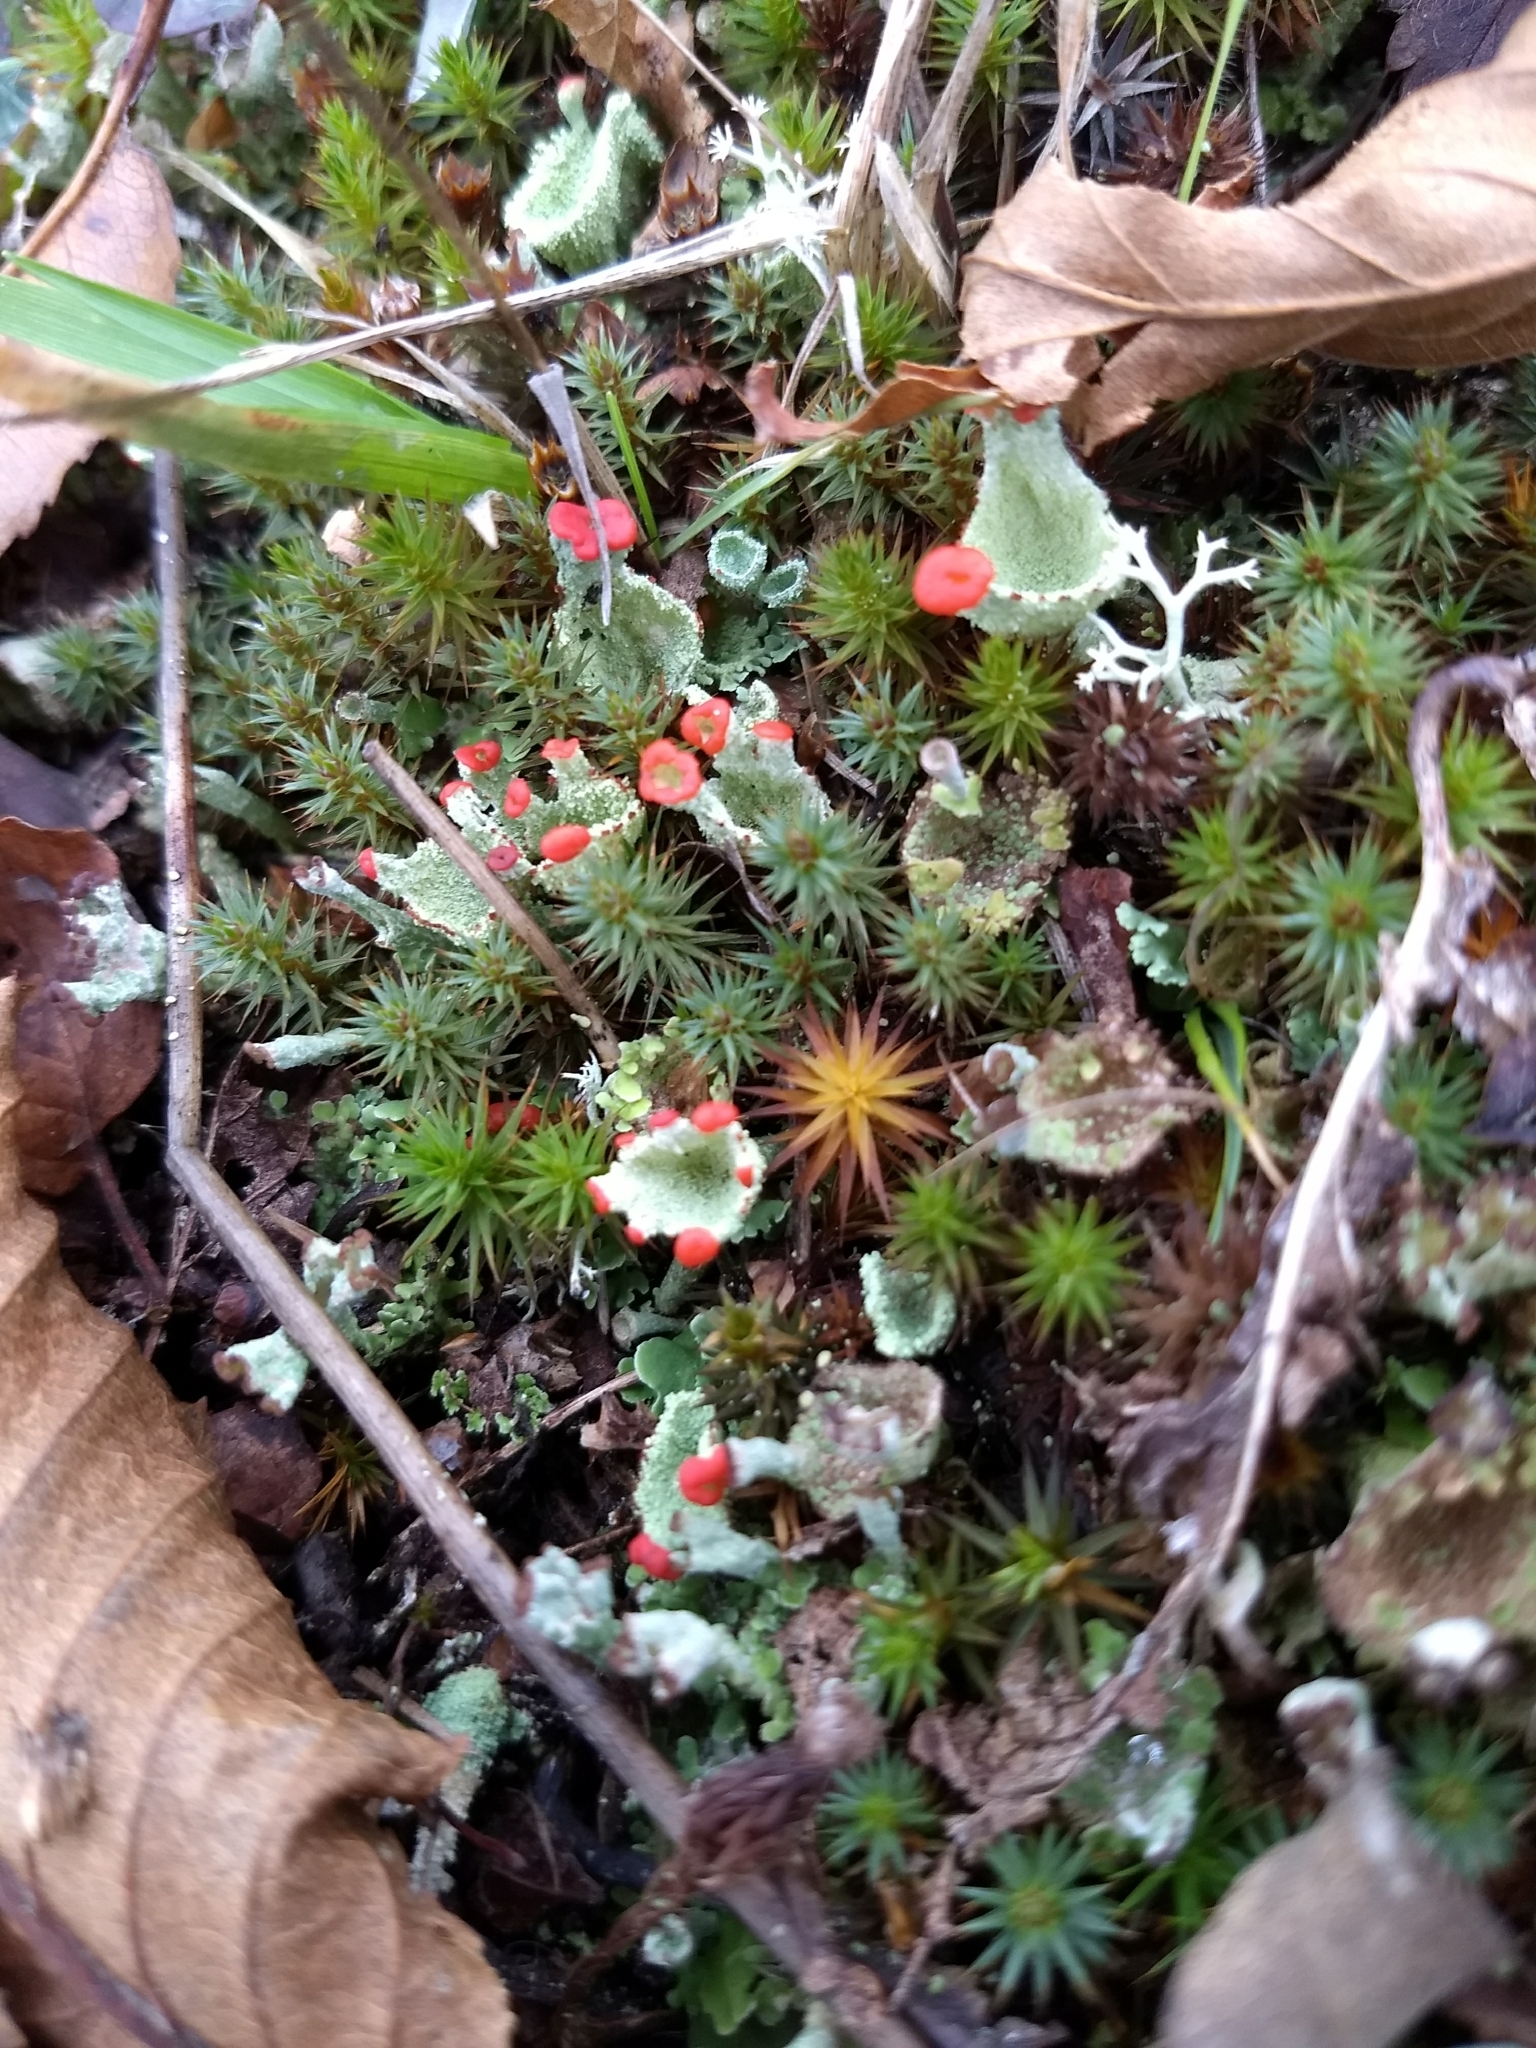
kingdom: Fungi
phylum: Ascomycota
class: Lecanoromycetes
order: Lecanorales
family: Cladoniaceae
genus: Cladonia
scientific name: Cladonia pleurota
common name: Red-fruited pixie cup
